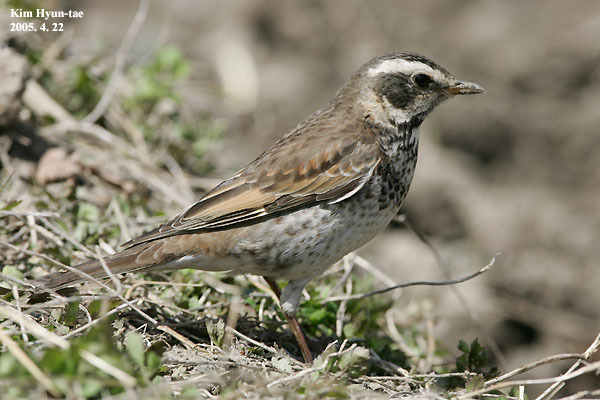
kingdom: Animalia
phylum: Chordata
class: Aves
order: Passeriformes
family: Turdidae
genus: Turdus
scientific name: Turdus eunomus
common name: Dusky thrush
